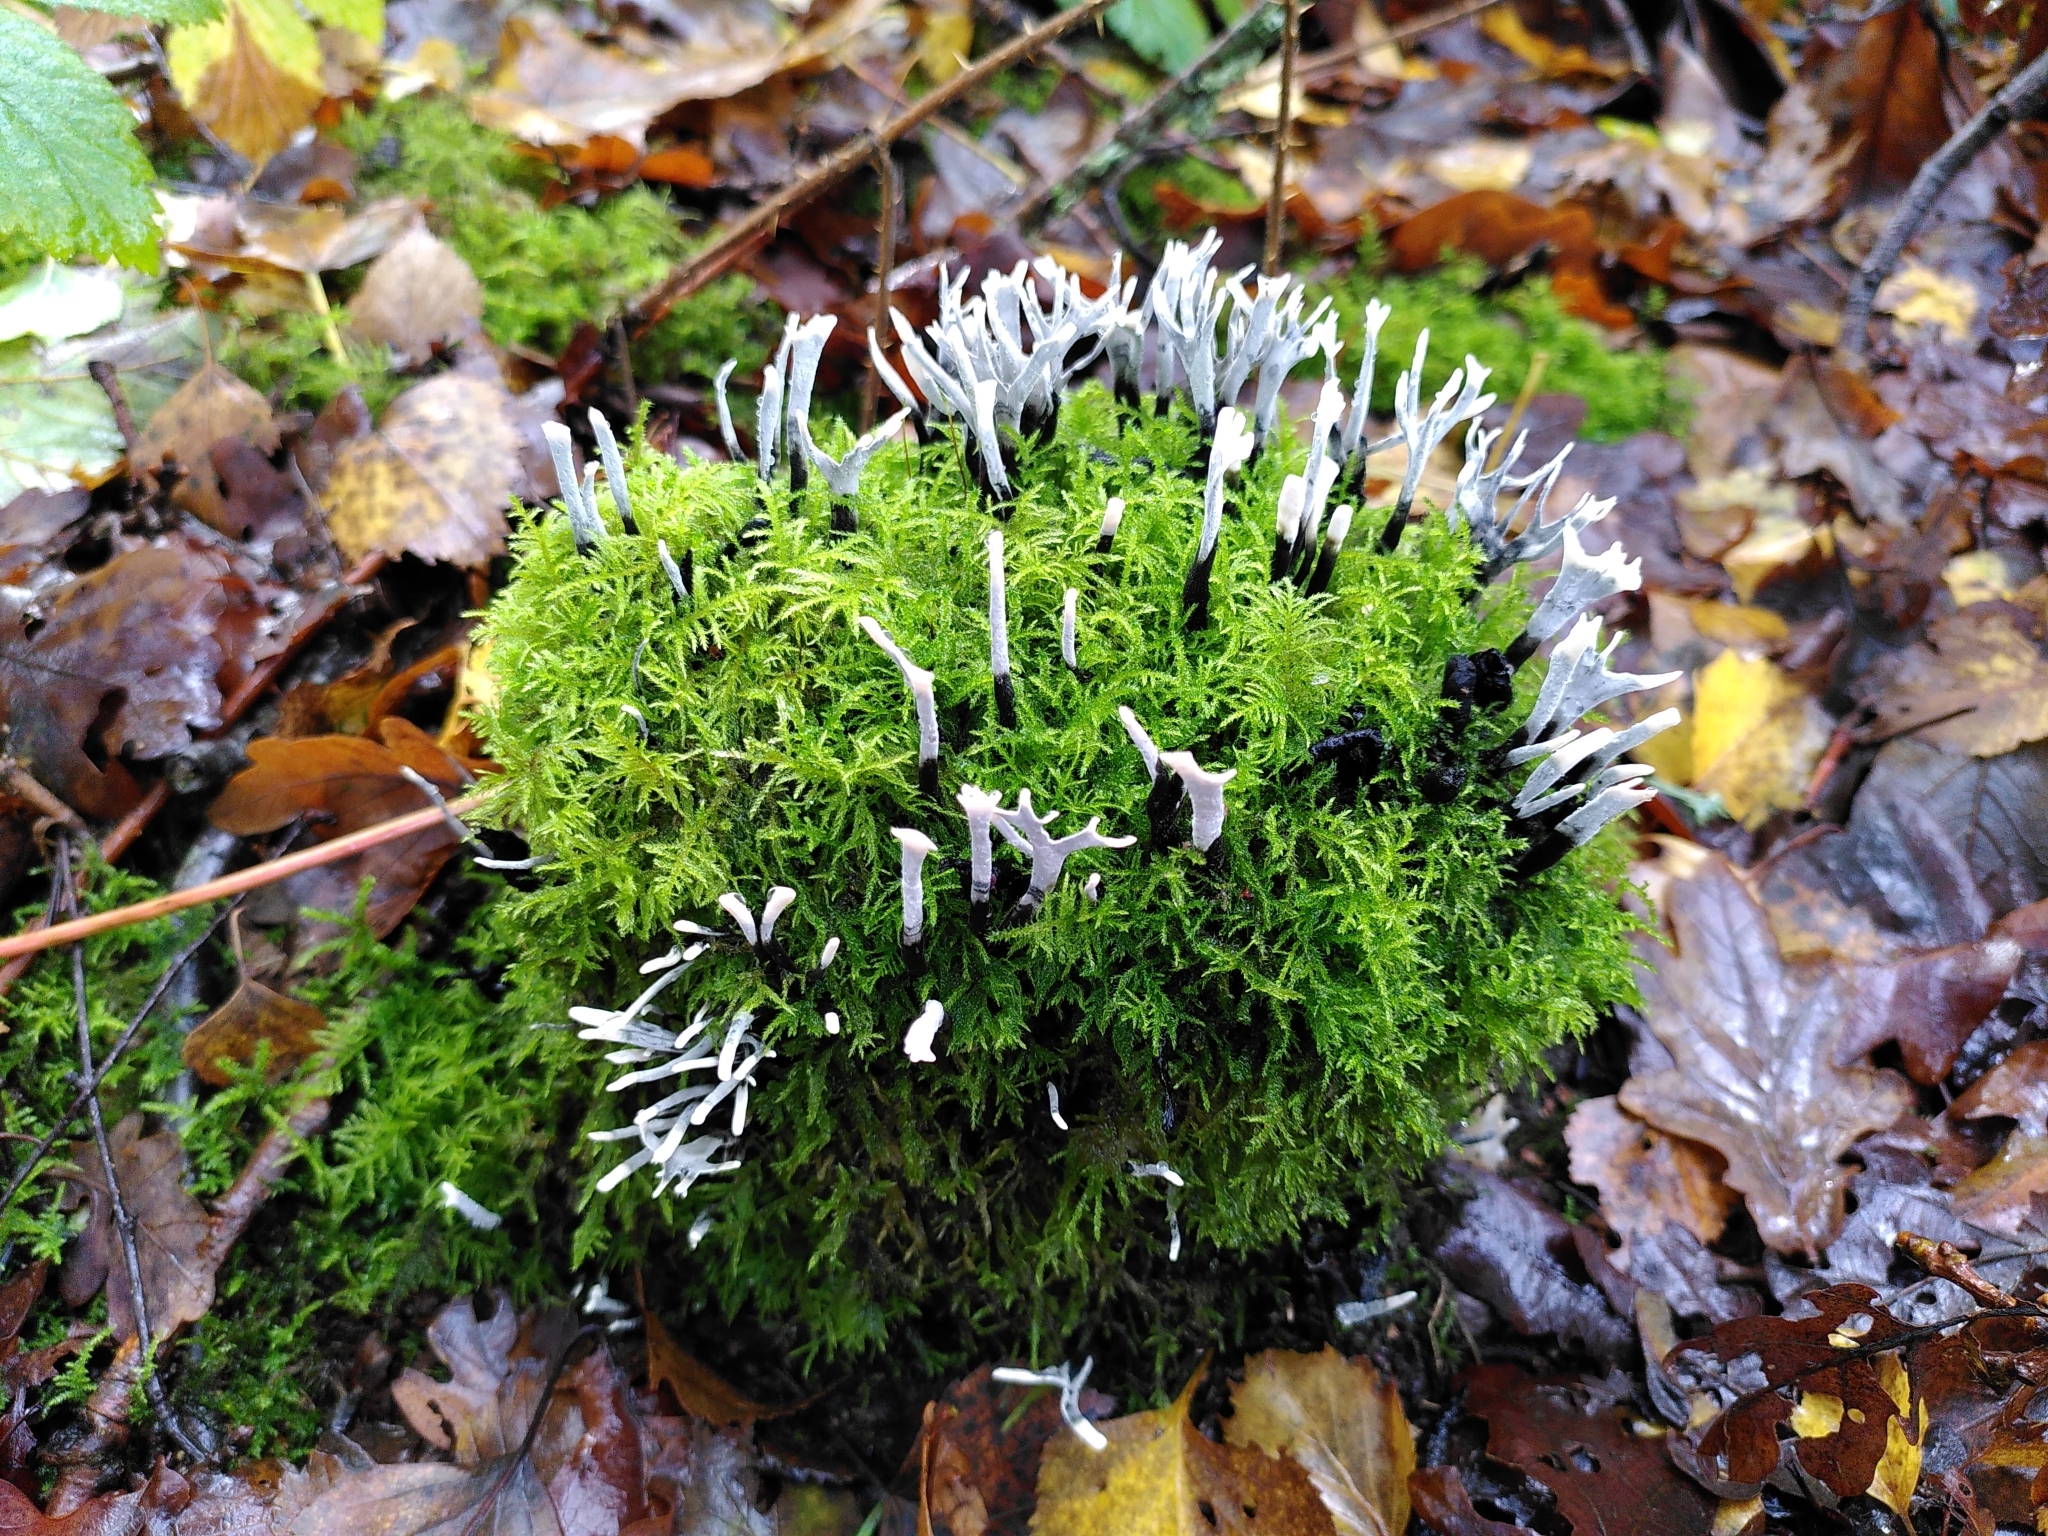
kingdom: Fungi
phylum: Ascomycota
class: Sordariomycetes
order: Xylariales
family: Xylariaceae
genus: Xylaria
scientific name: Xylaria hypoxylon
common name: Candle-snuff fungus
